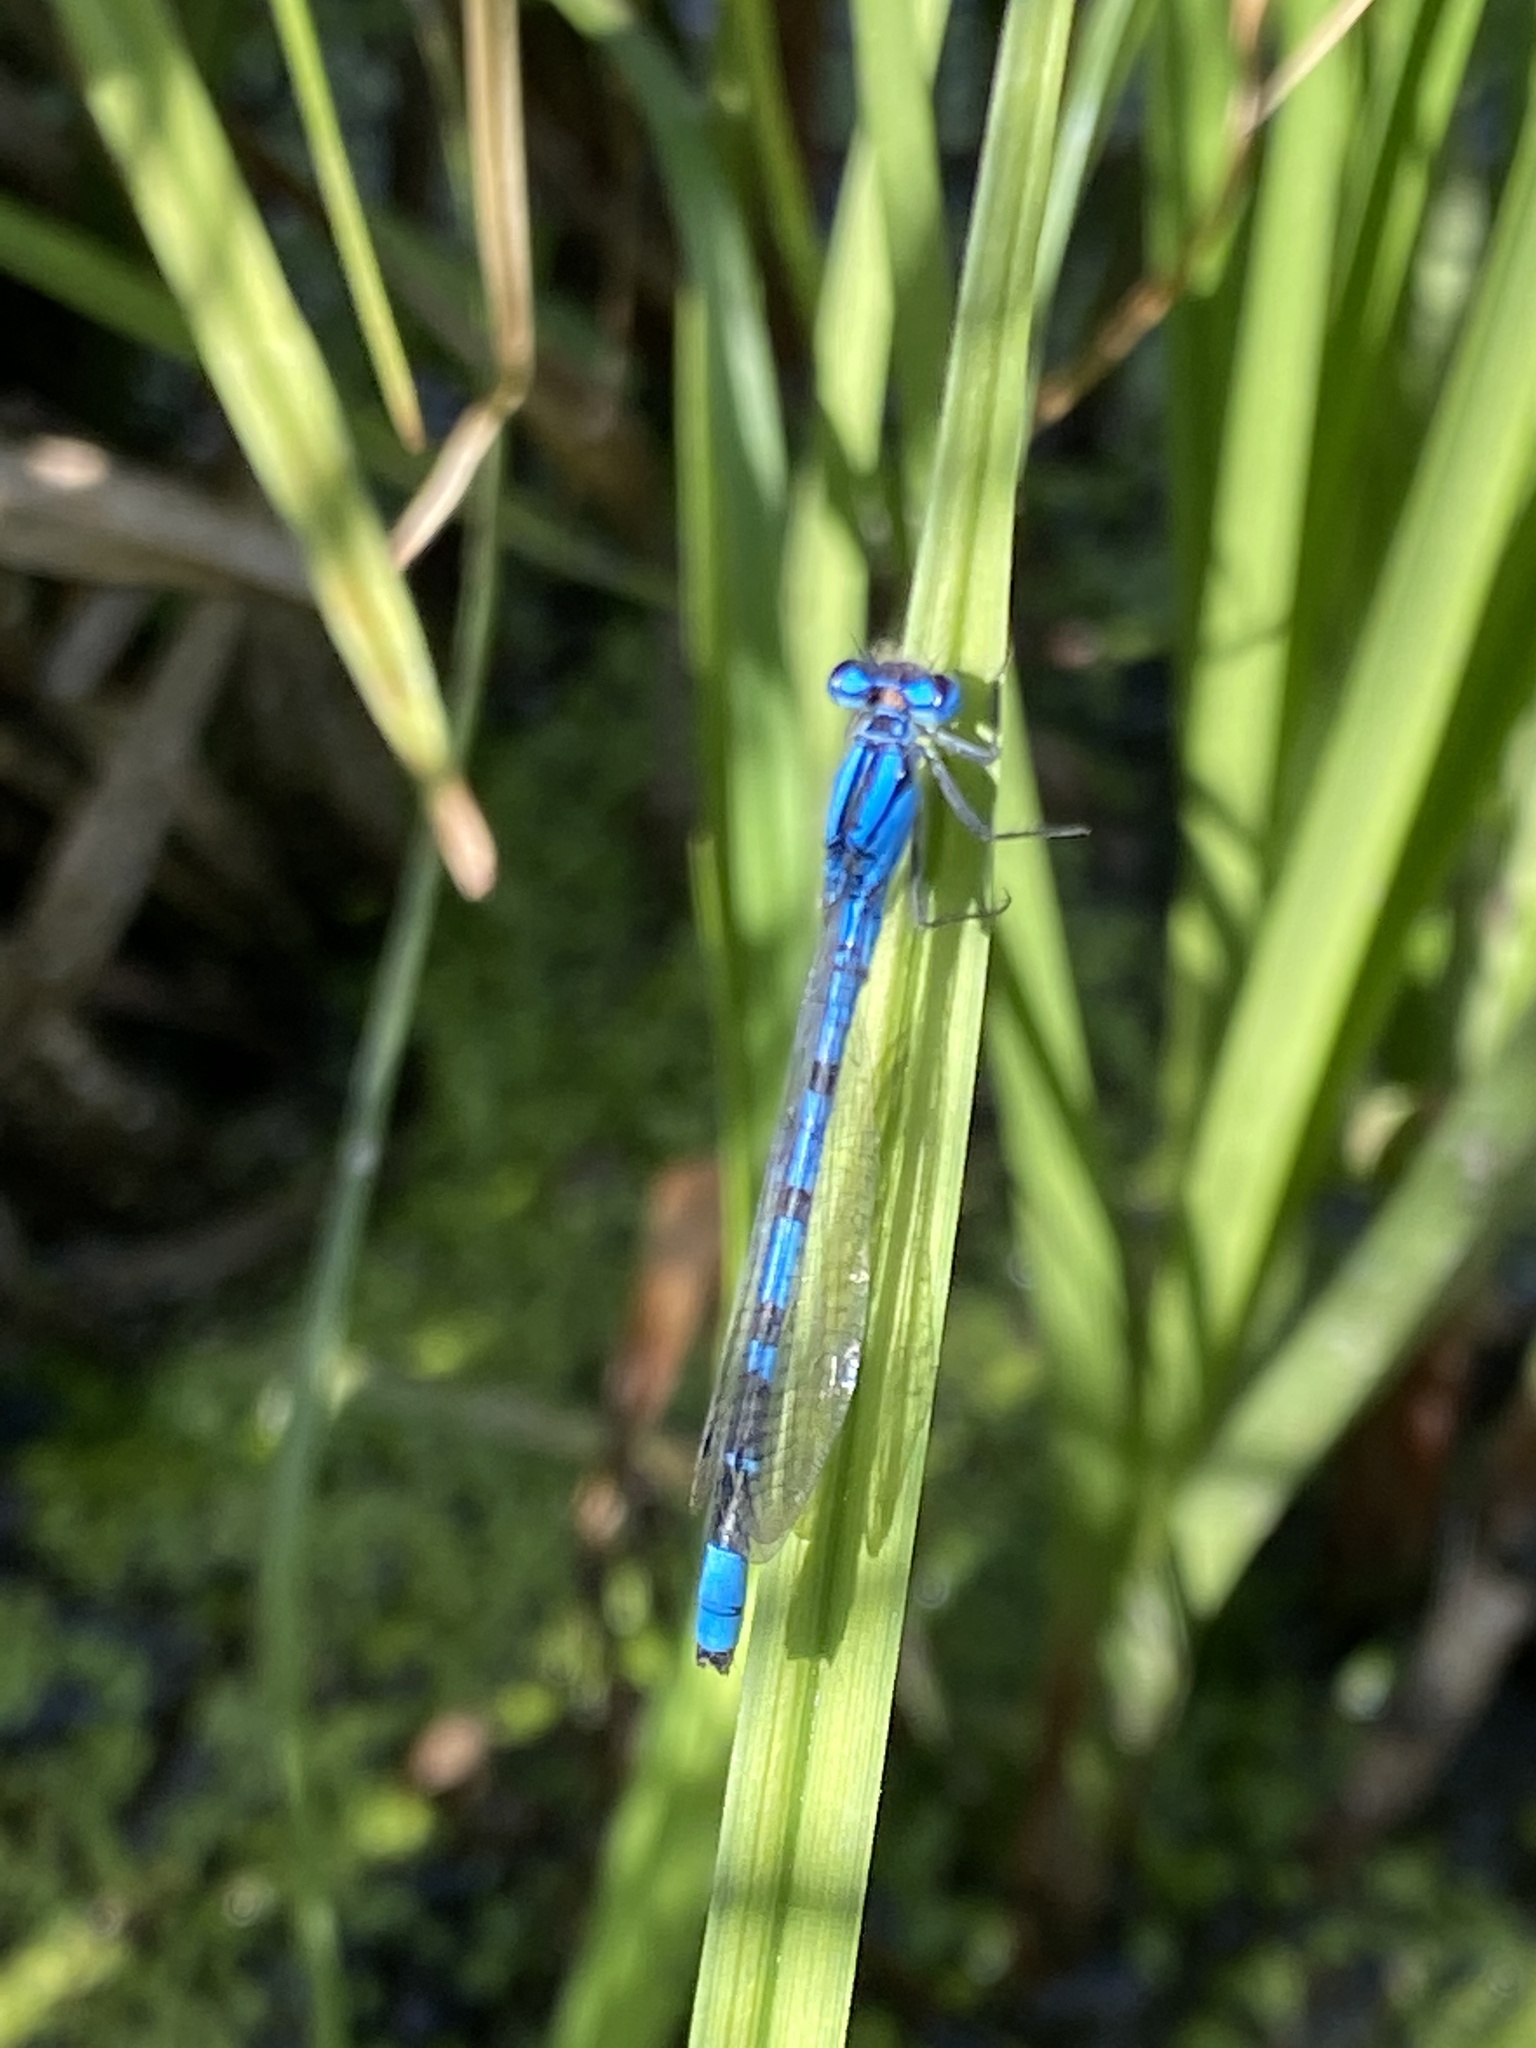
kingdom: Animalia
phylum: Arthropoda
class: Insecta
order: Odonata
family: Coenagrionidae
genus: Enallagma
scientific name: Enallagma boreale
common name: Boreal bluet
